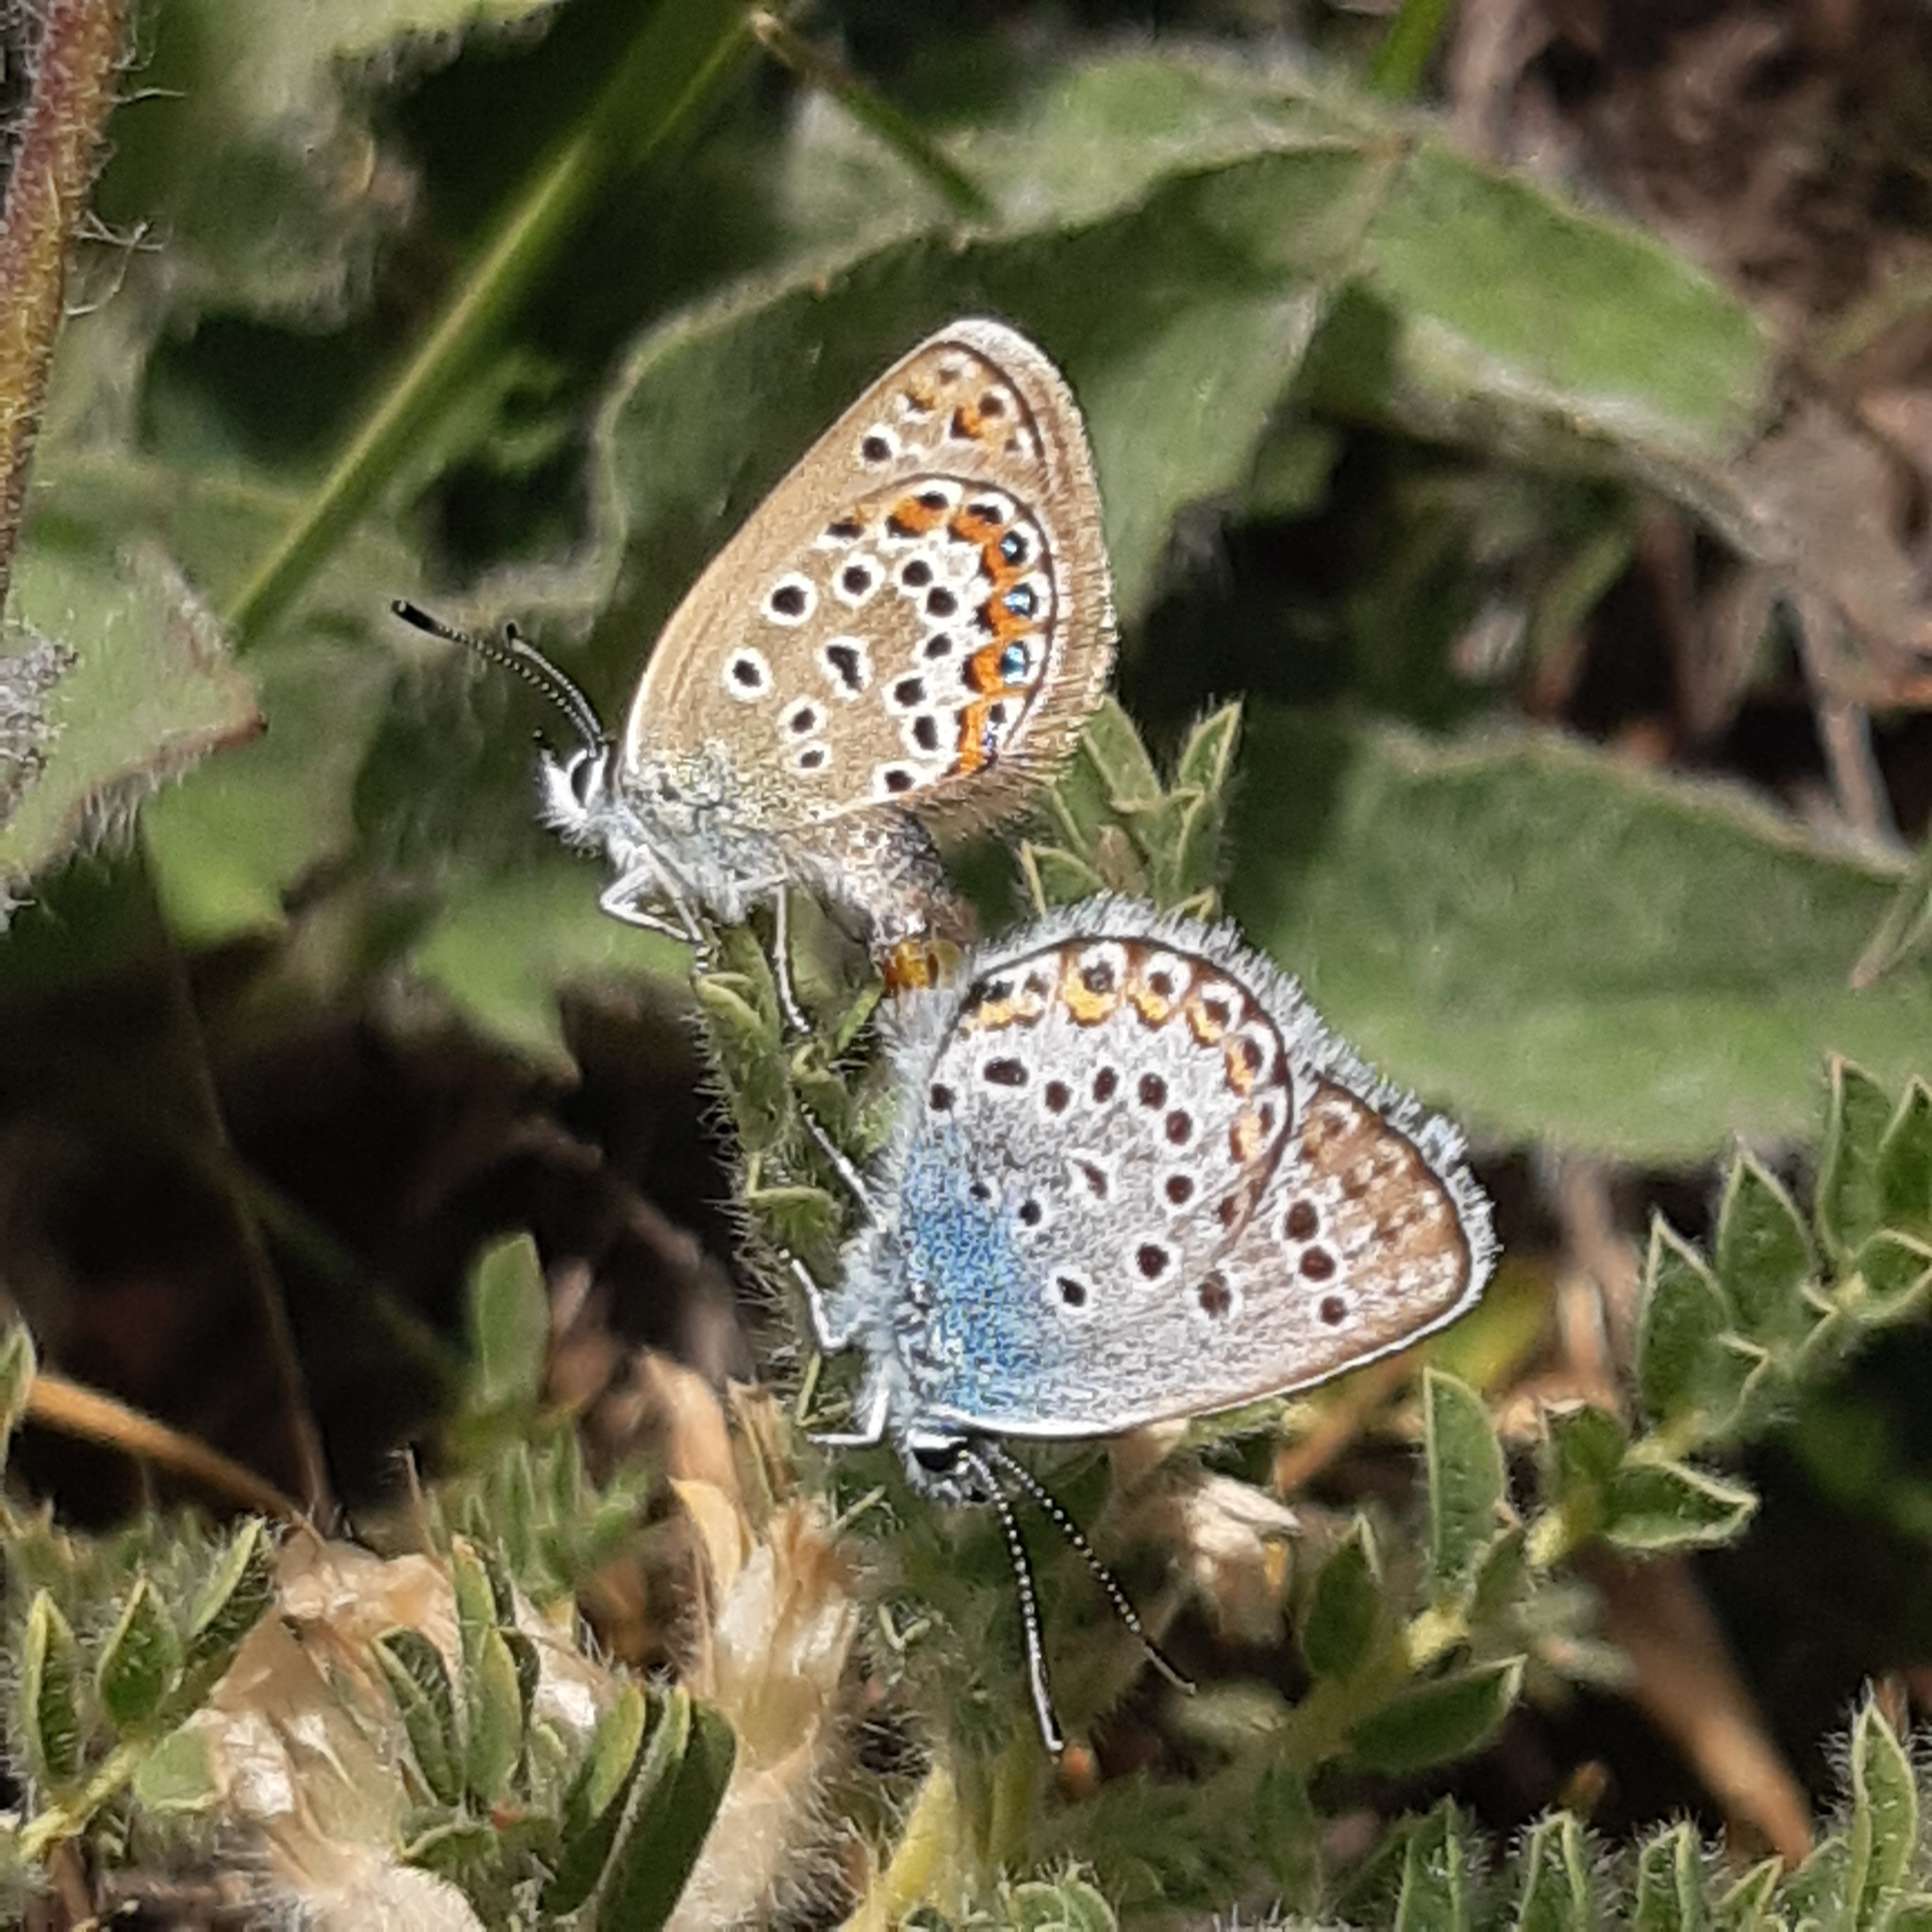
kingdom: Animalia
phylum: Arthropoda
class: Insecta
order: Lepidoptera
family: Lycaenidae
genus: Plebejus
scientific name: Plebejus argus
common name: Silver-studded blue
